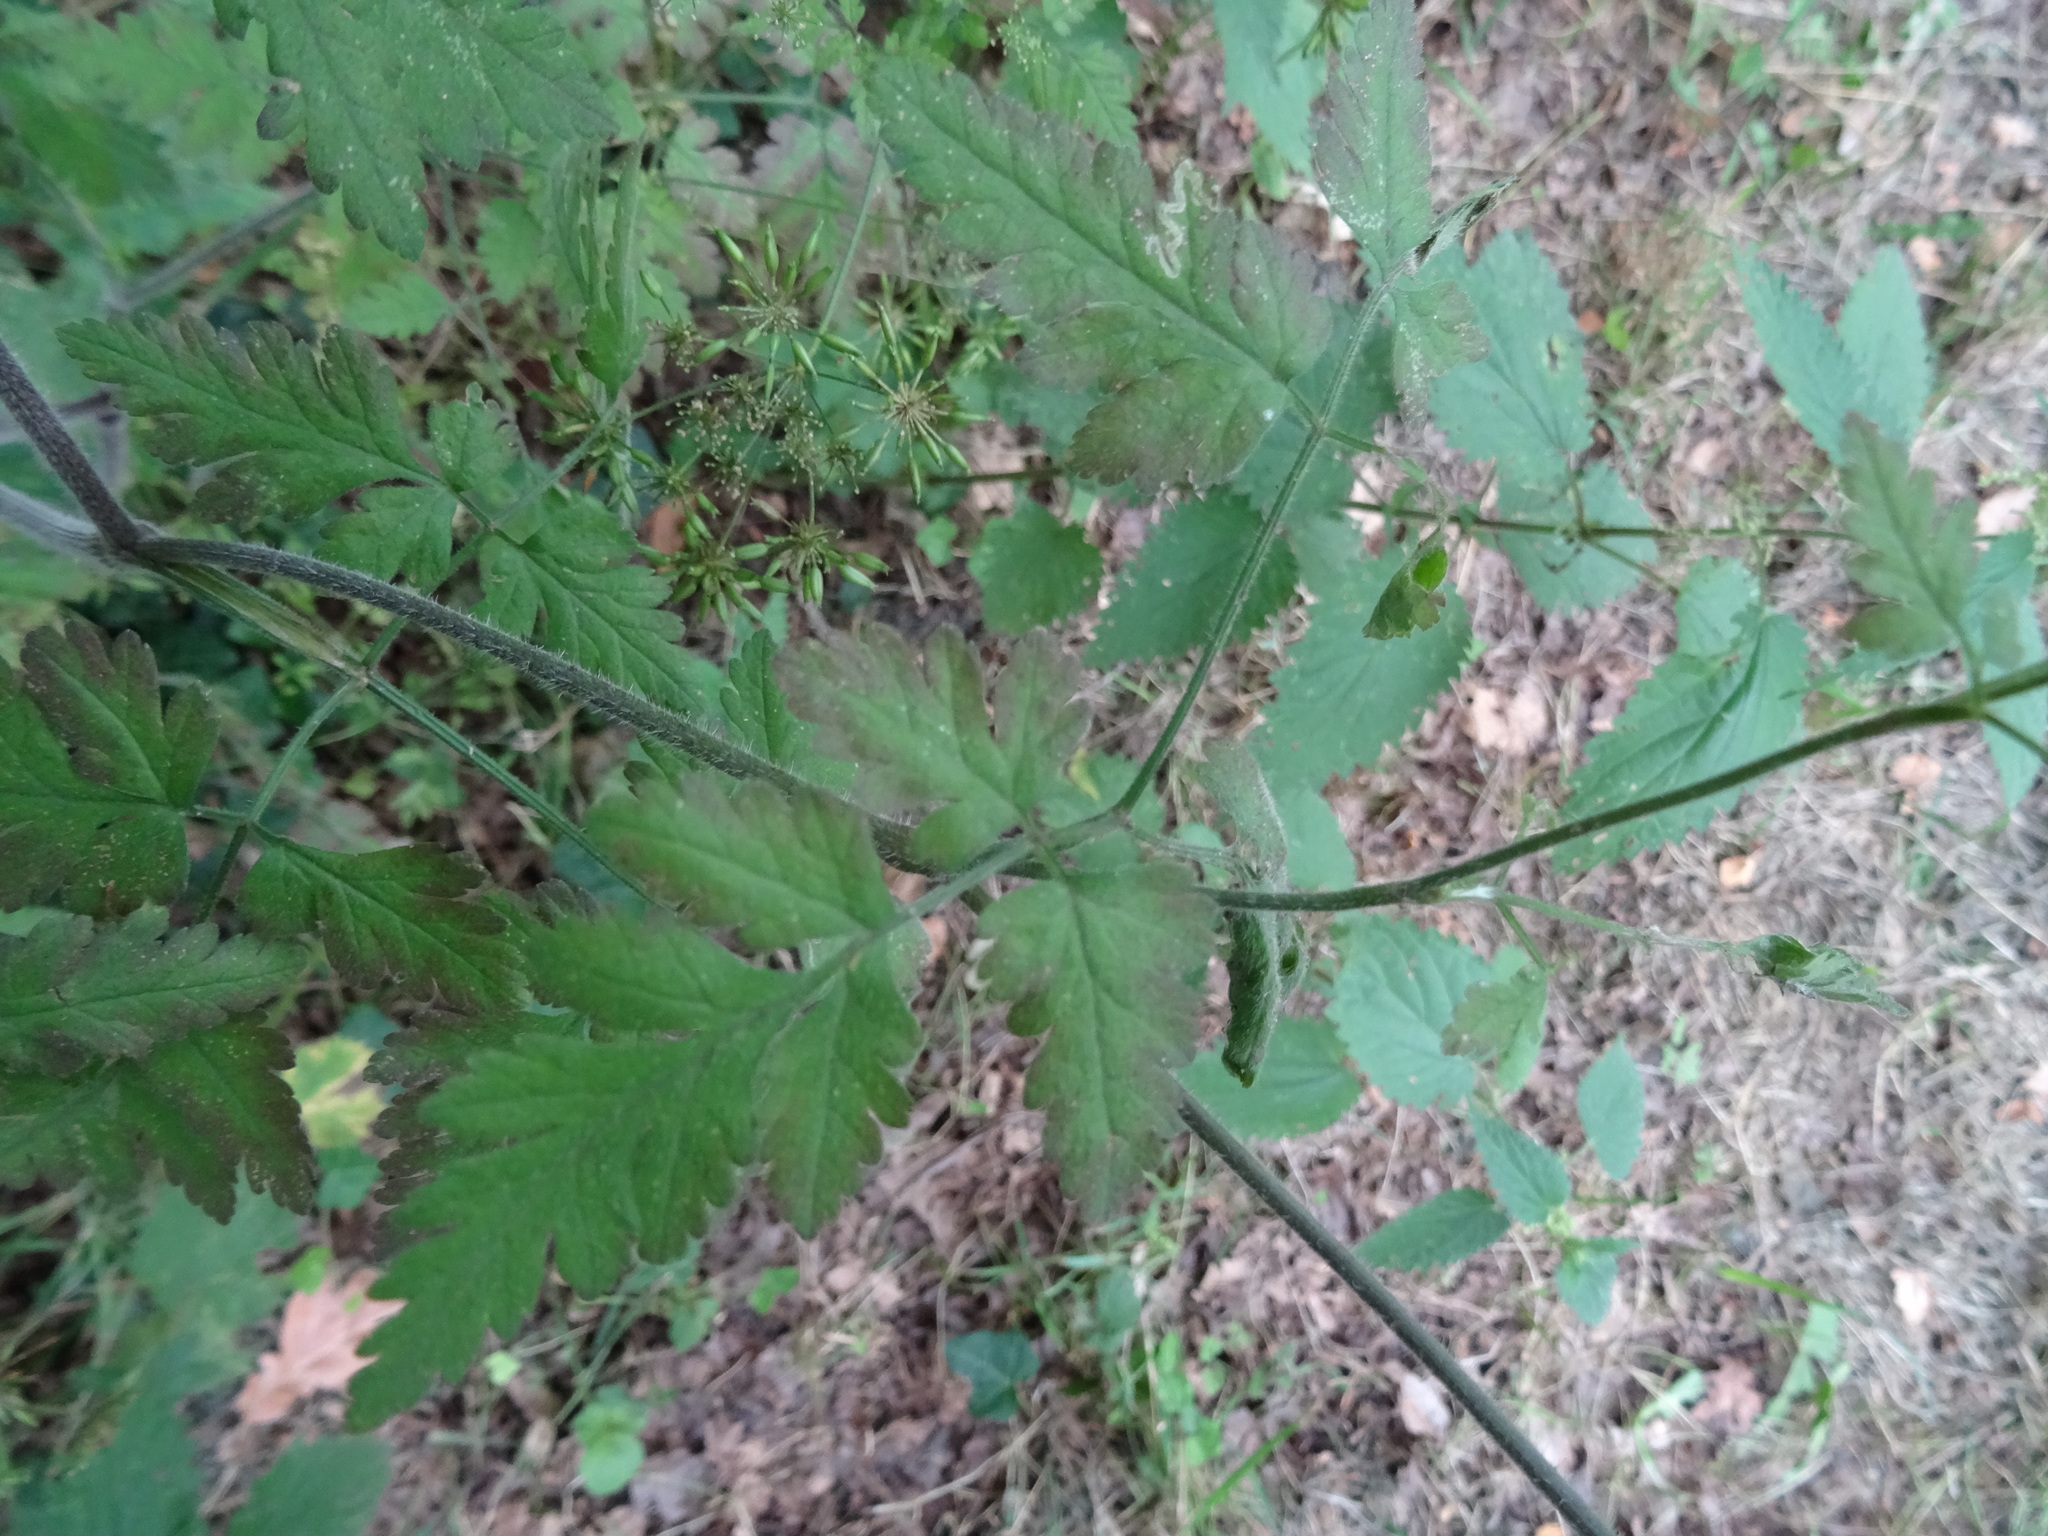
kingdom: Plantae
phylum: Tracheophyta
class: Magnoliopsida
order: Apiales
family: Apiaceae
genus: Chaerophyllum
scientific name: Chaerophyllum temulum
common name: Rough chervil
